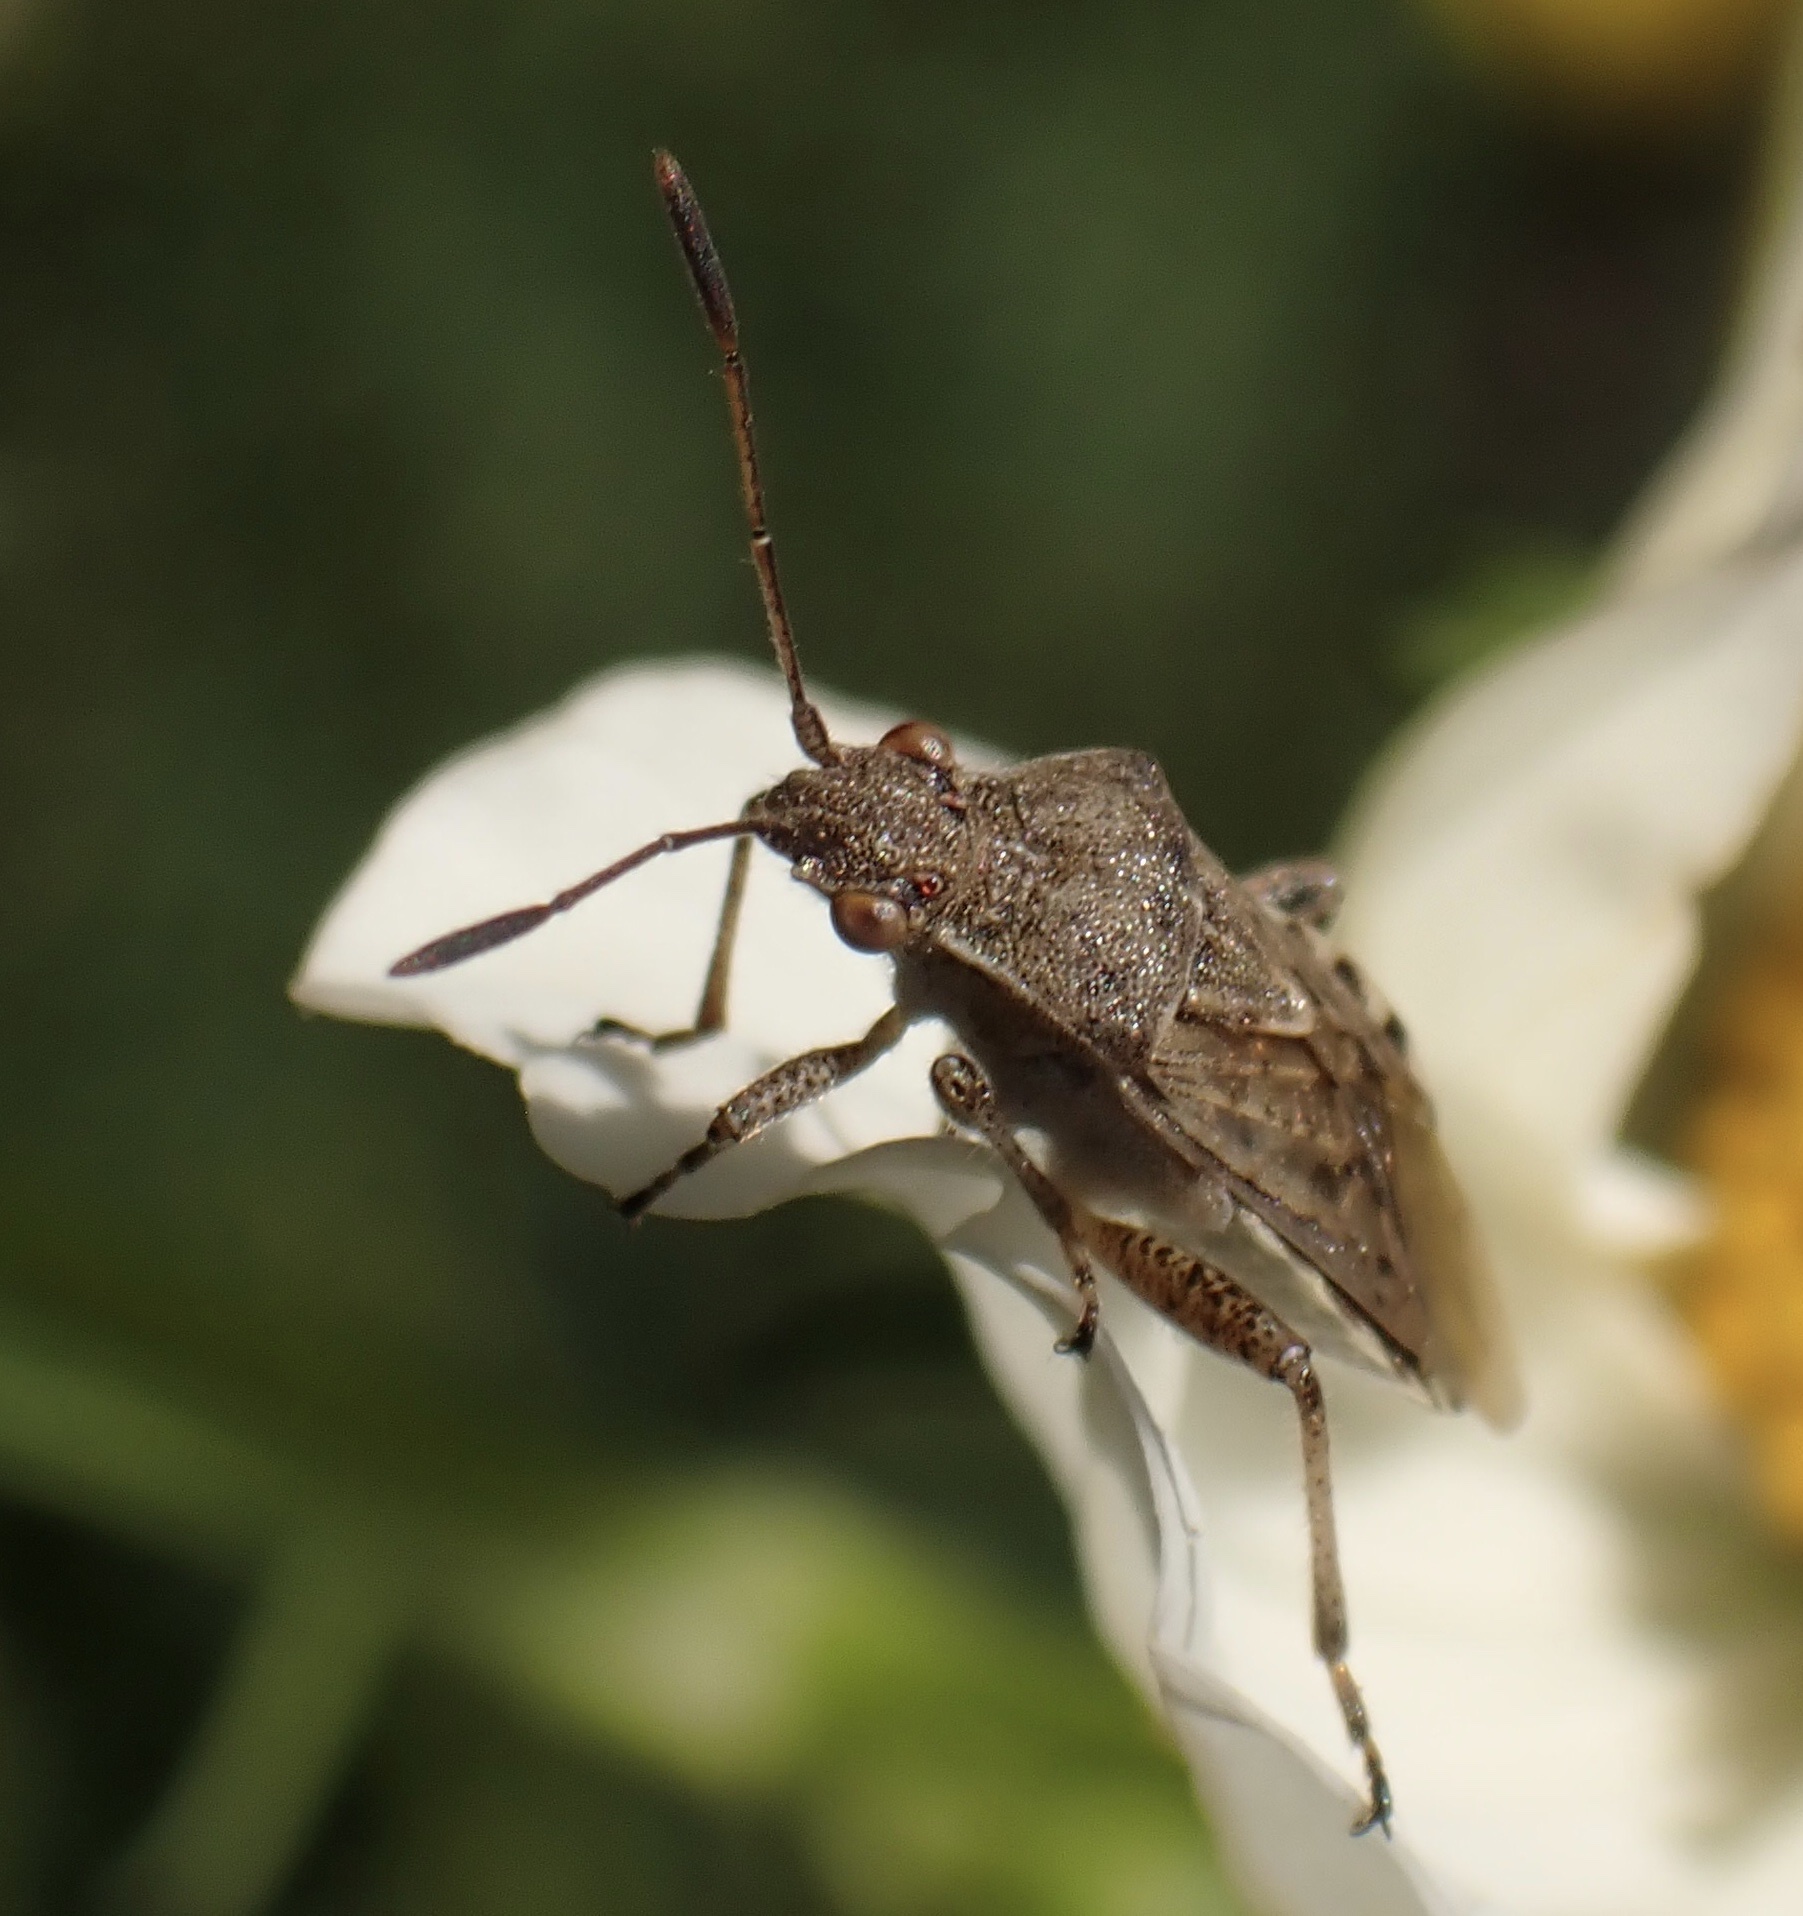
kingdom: Animalia
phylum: Arthropoda
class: Insecta
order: Hemiptera
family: Rhopalidae
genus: Stictopleurus
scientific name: Stictopleurus punctatonervosus
